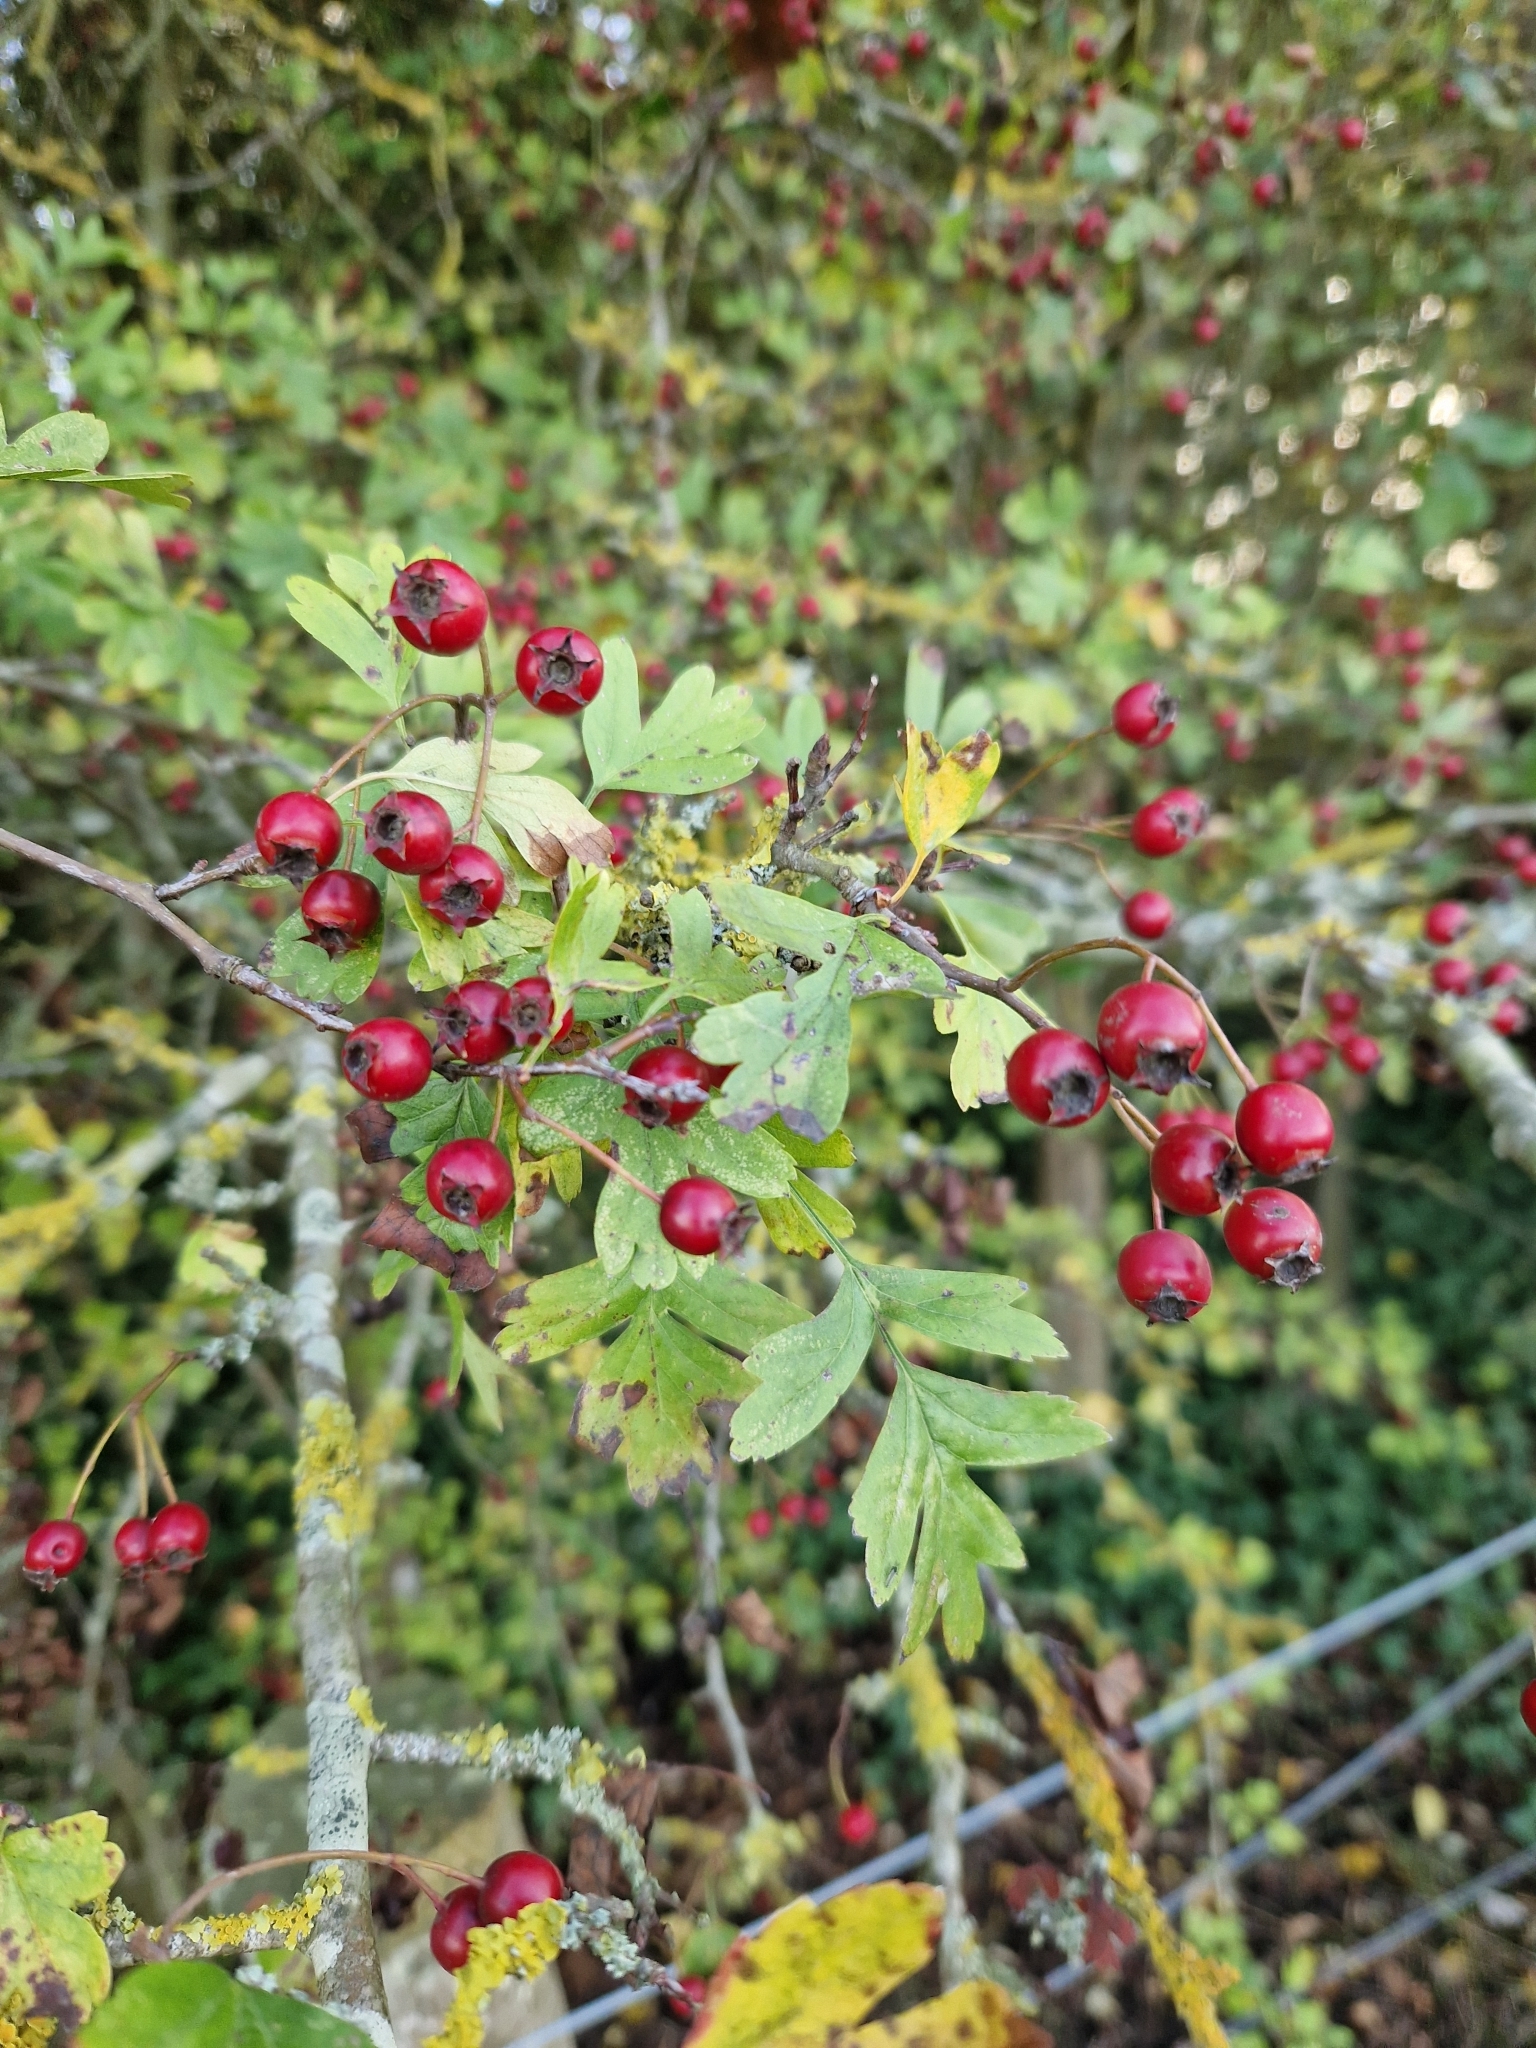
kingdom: Plantae
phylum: Tracheophyta
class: Magnoliopsida
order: Rosales
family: Rosaceae
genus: Crataegus
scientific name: Crataegus monogyna
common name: Hawthorn
